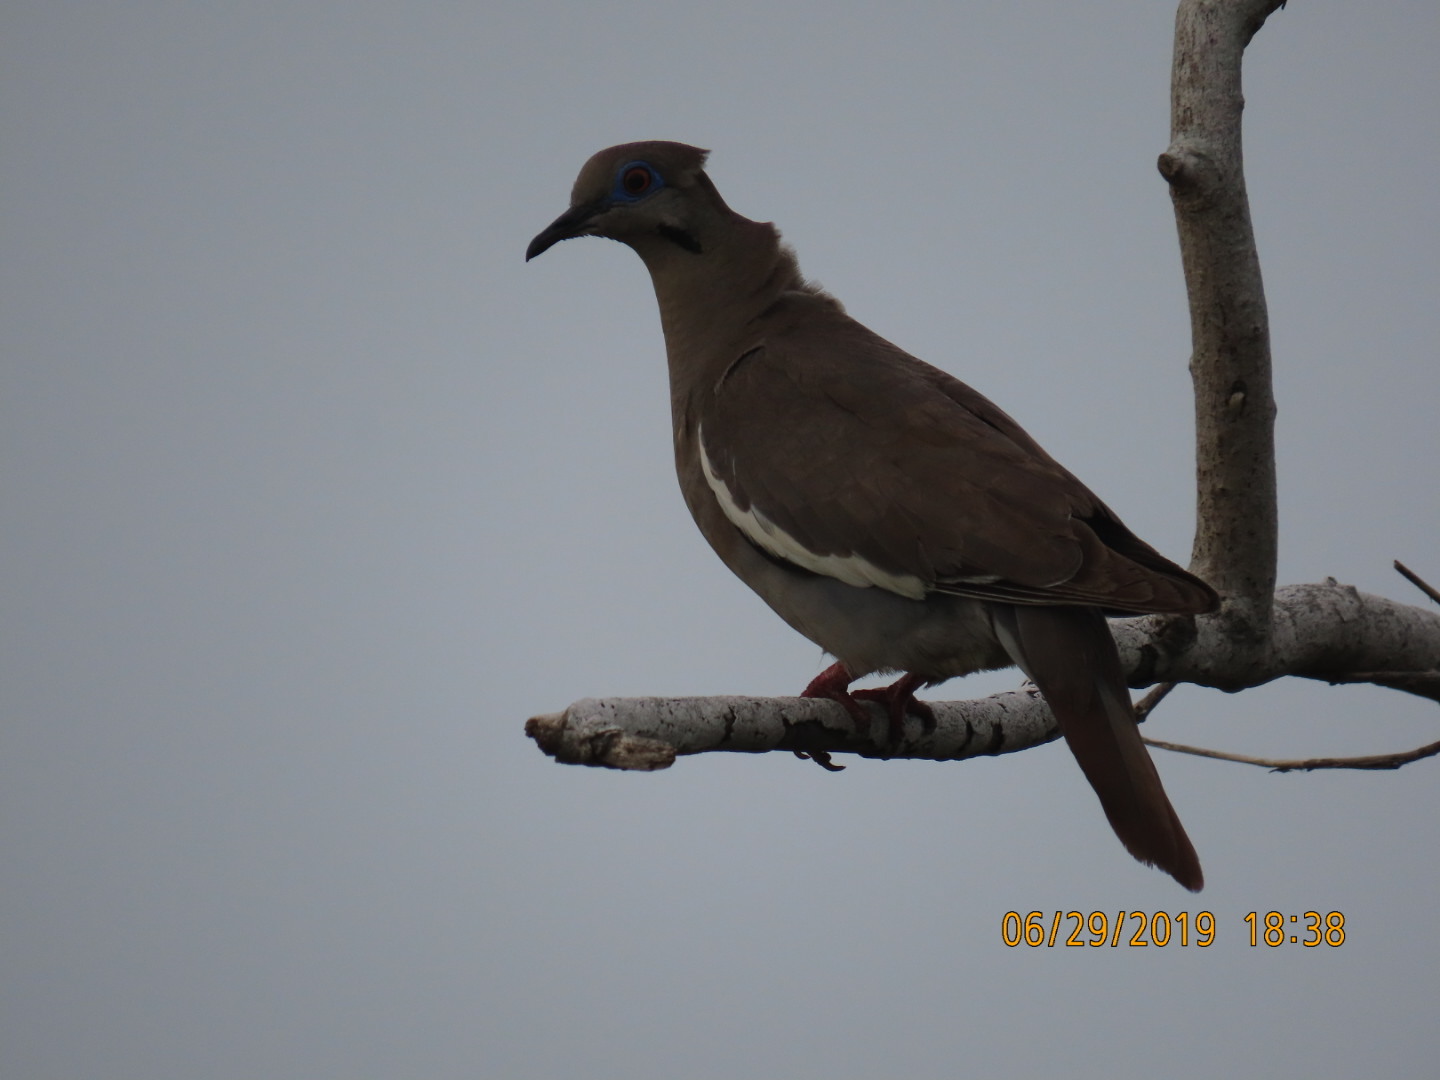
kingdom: Animalia
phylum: Chordata
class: Aves
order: Columbiformes
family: Columbidae
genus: Zenaida
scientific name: Zenaida asiatica
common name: White-winged dove
